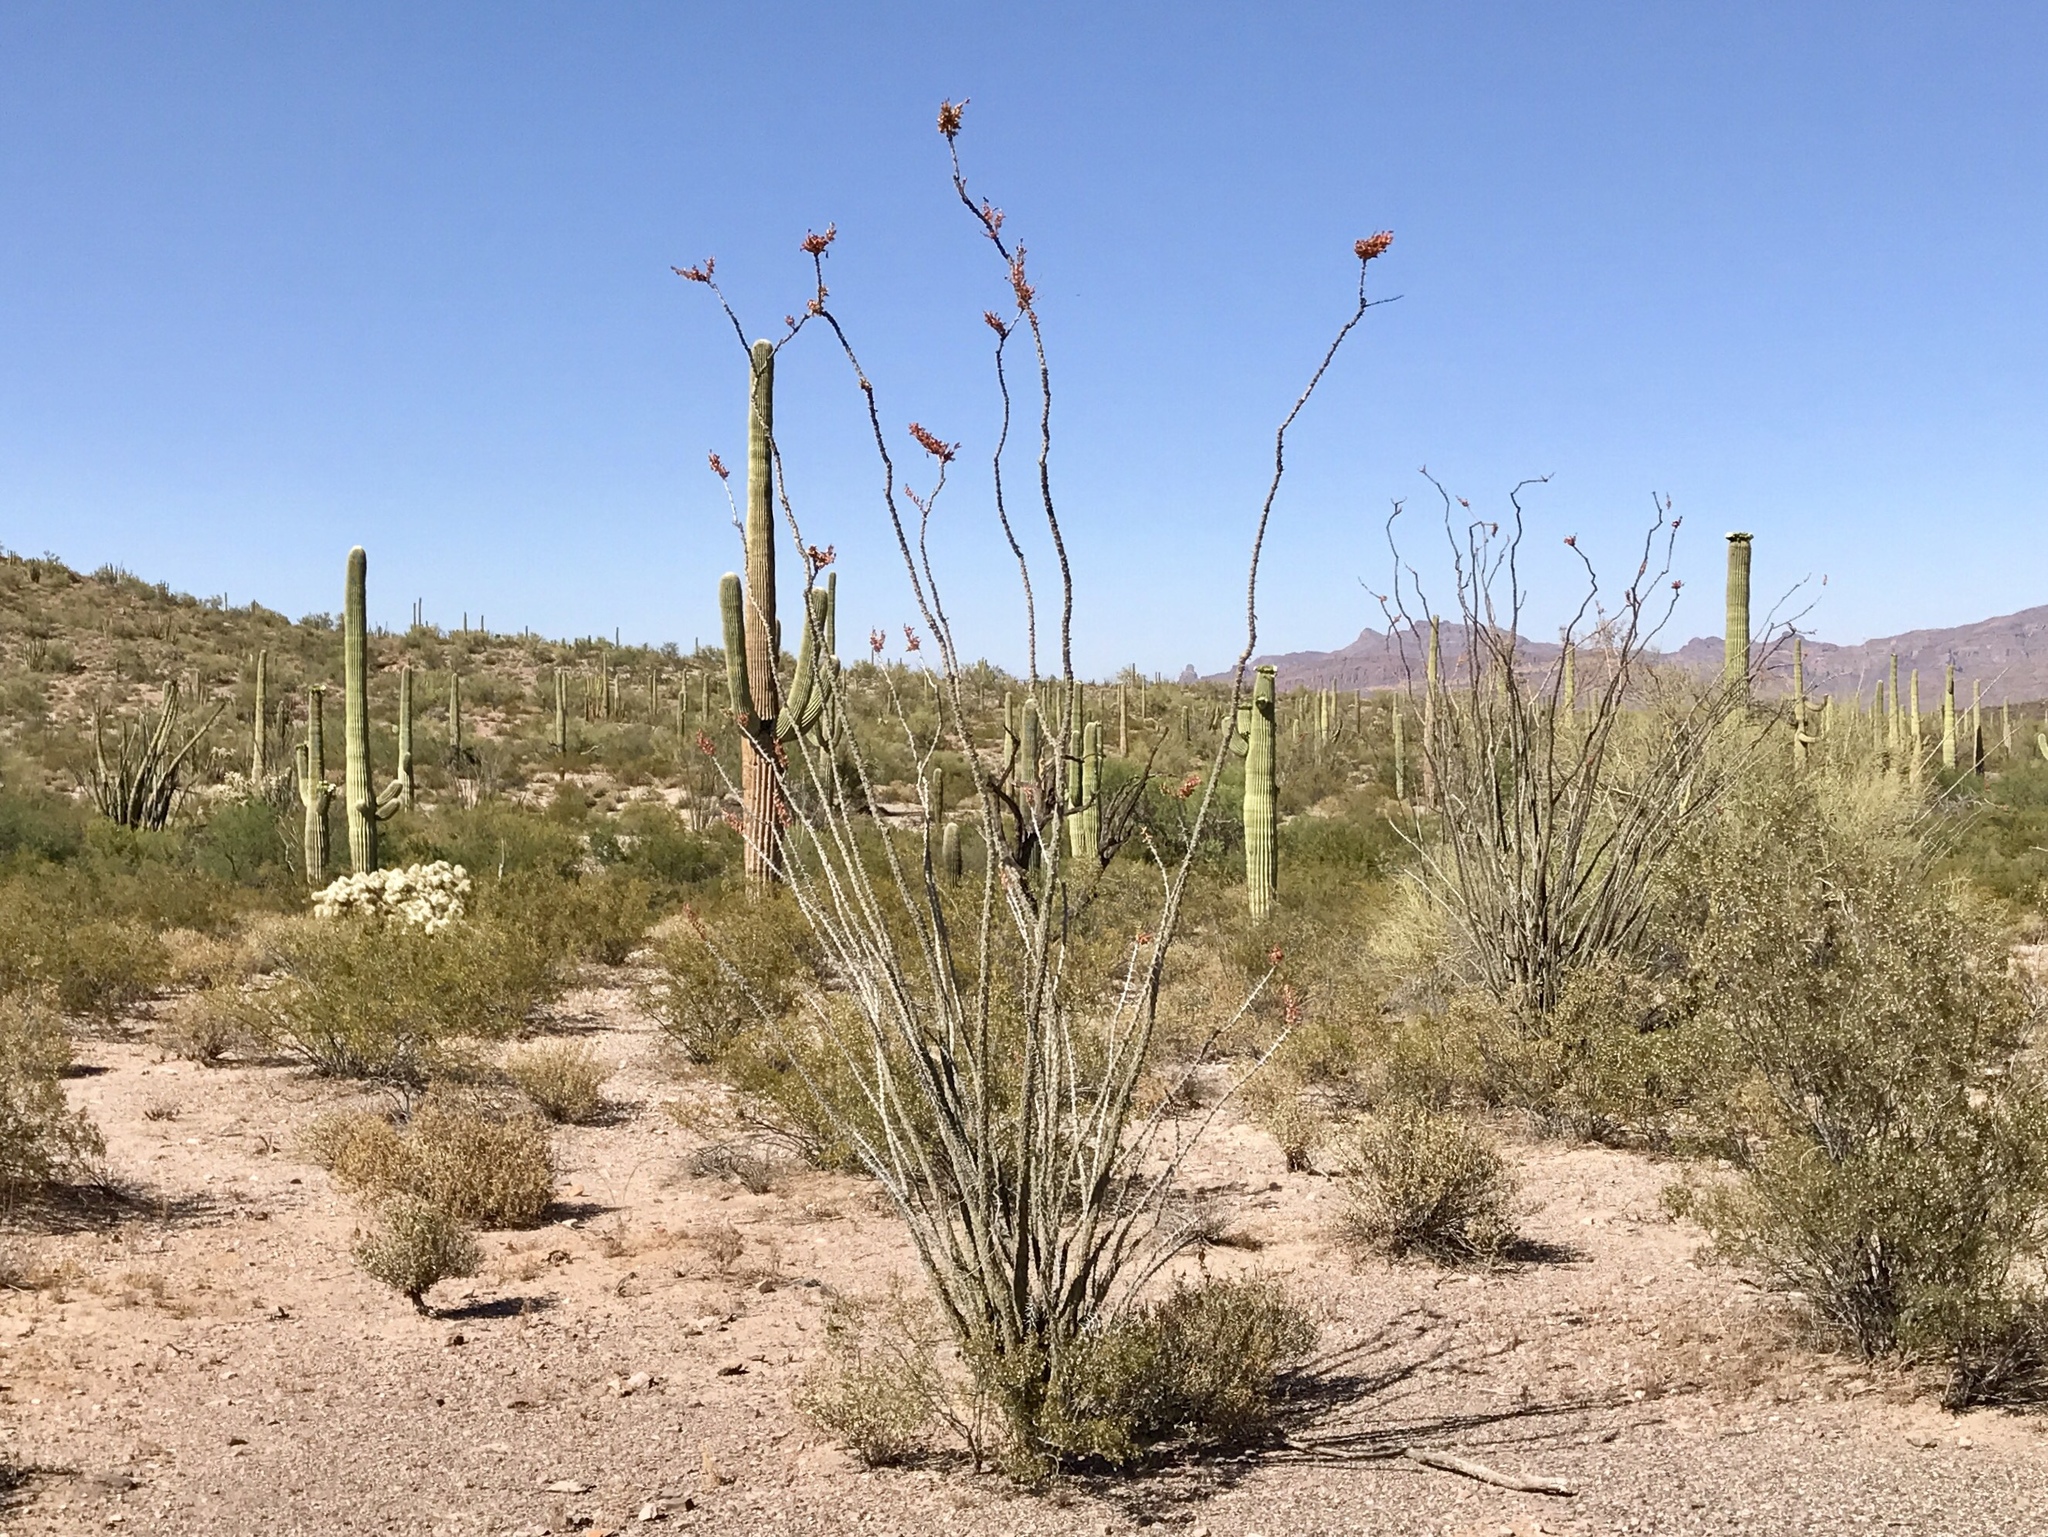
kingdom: Plantae
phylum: Tracheophyta
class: Magnoliopsida
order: Ericales
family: Fouquieriaceae
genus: Fouquieria
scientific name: Fouquieria splendens
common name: Vine-cactus
